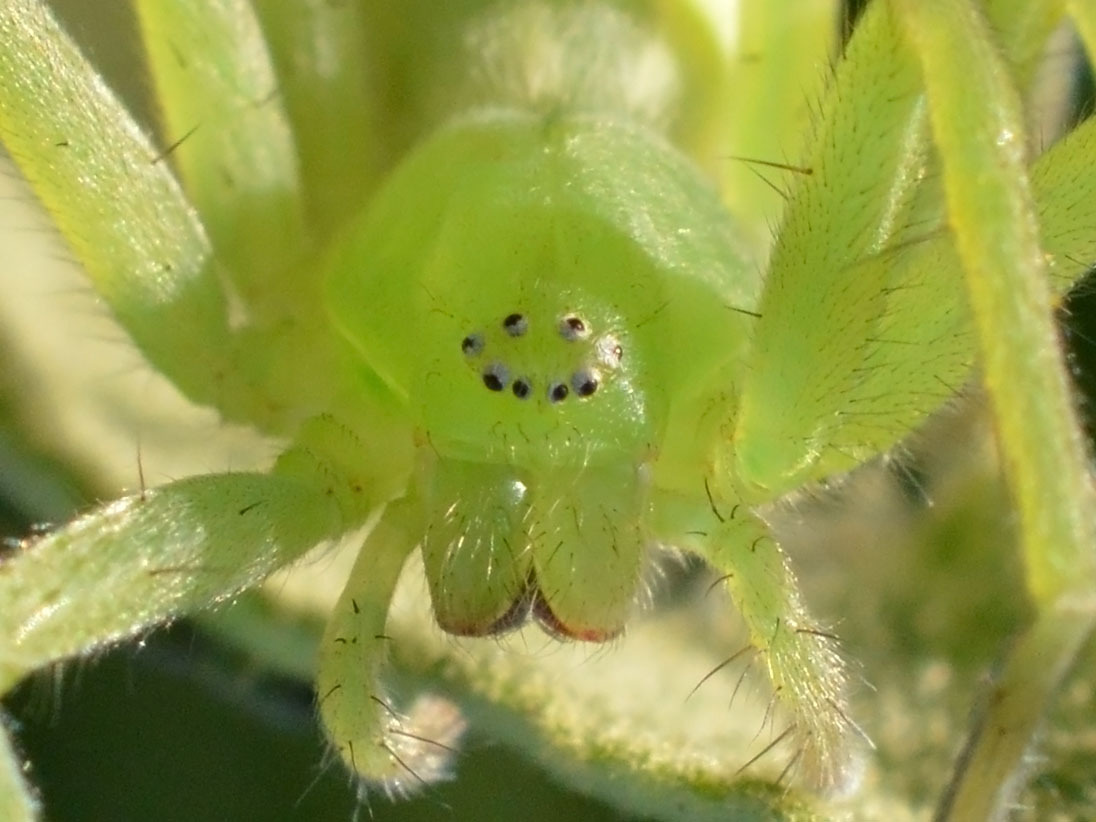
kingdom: Animalia
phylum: Arthropoda
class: Arachnida
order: Araneae
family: Sparassidae
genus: Micrommata
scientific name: Micrommata virescens
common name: Green spider
